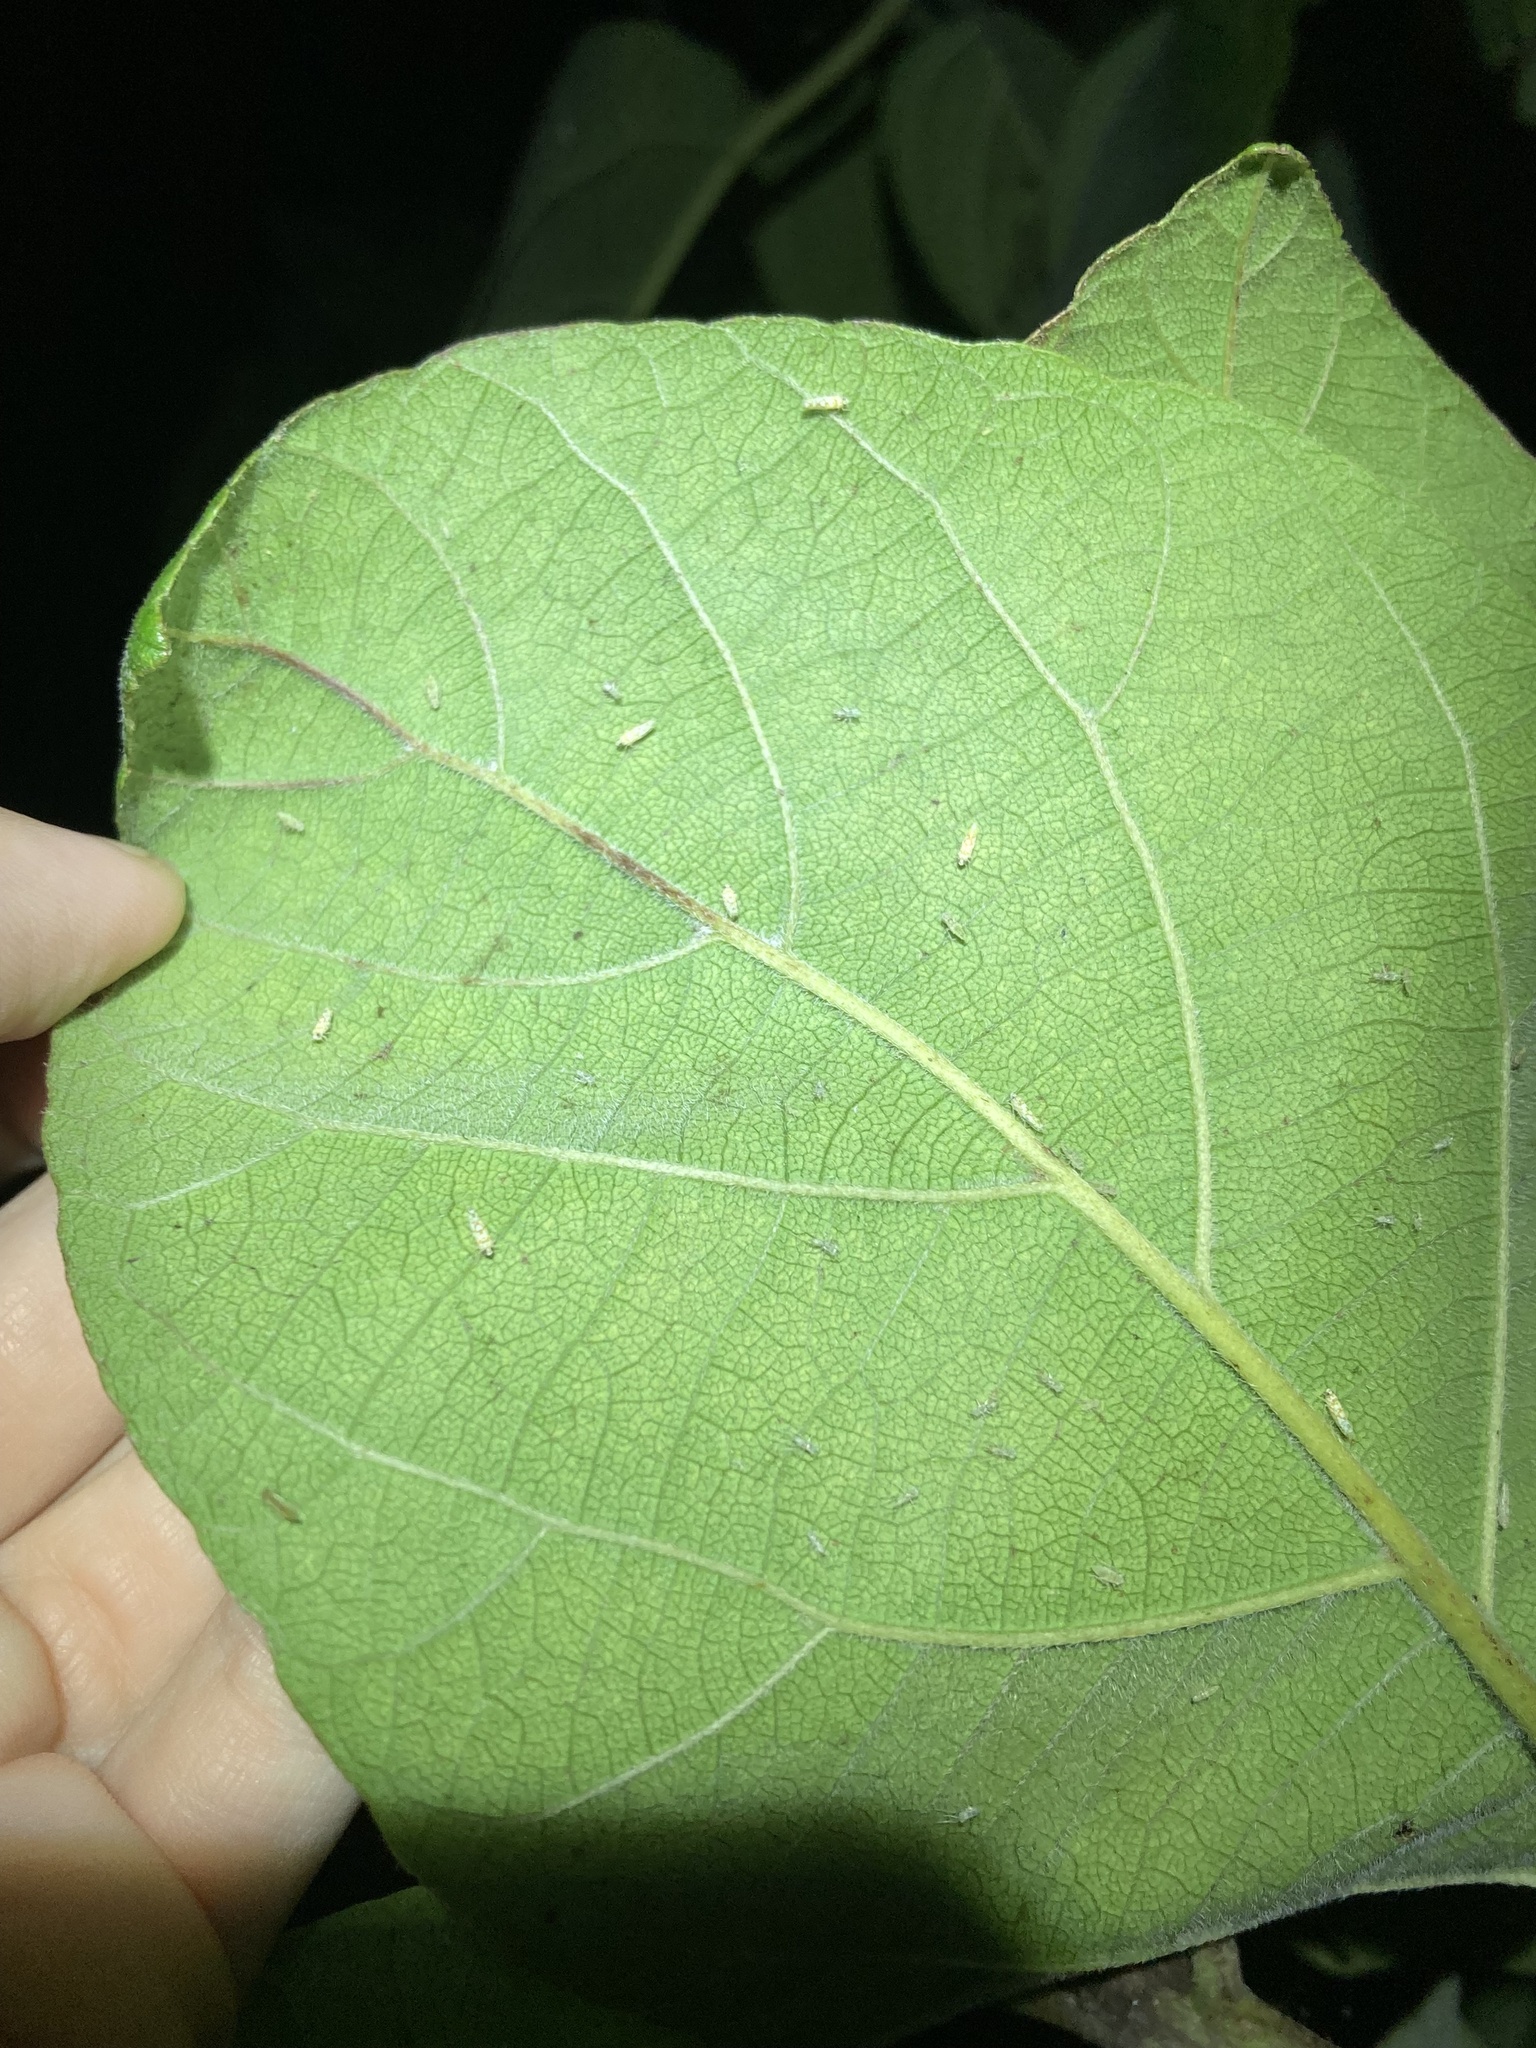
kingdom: Animalia
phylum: Arthropoda
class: Insecta
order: Hemiptera
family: Cicadellidae
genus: Protalebra
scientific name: Protalebra nexa
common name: Leafhopper
